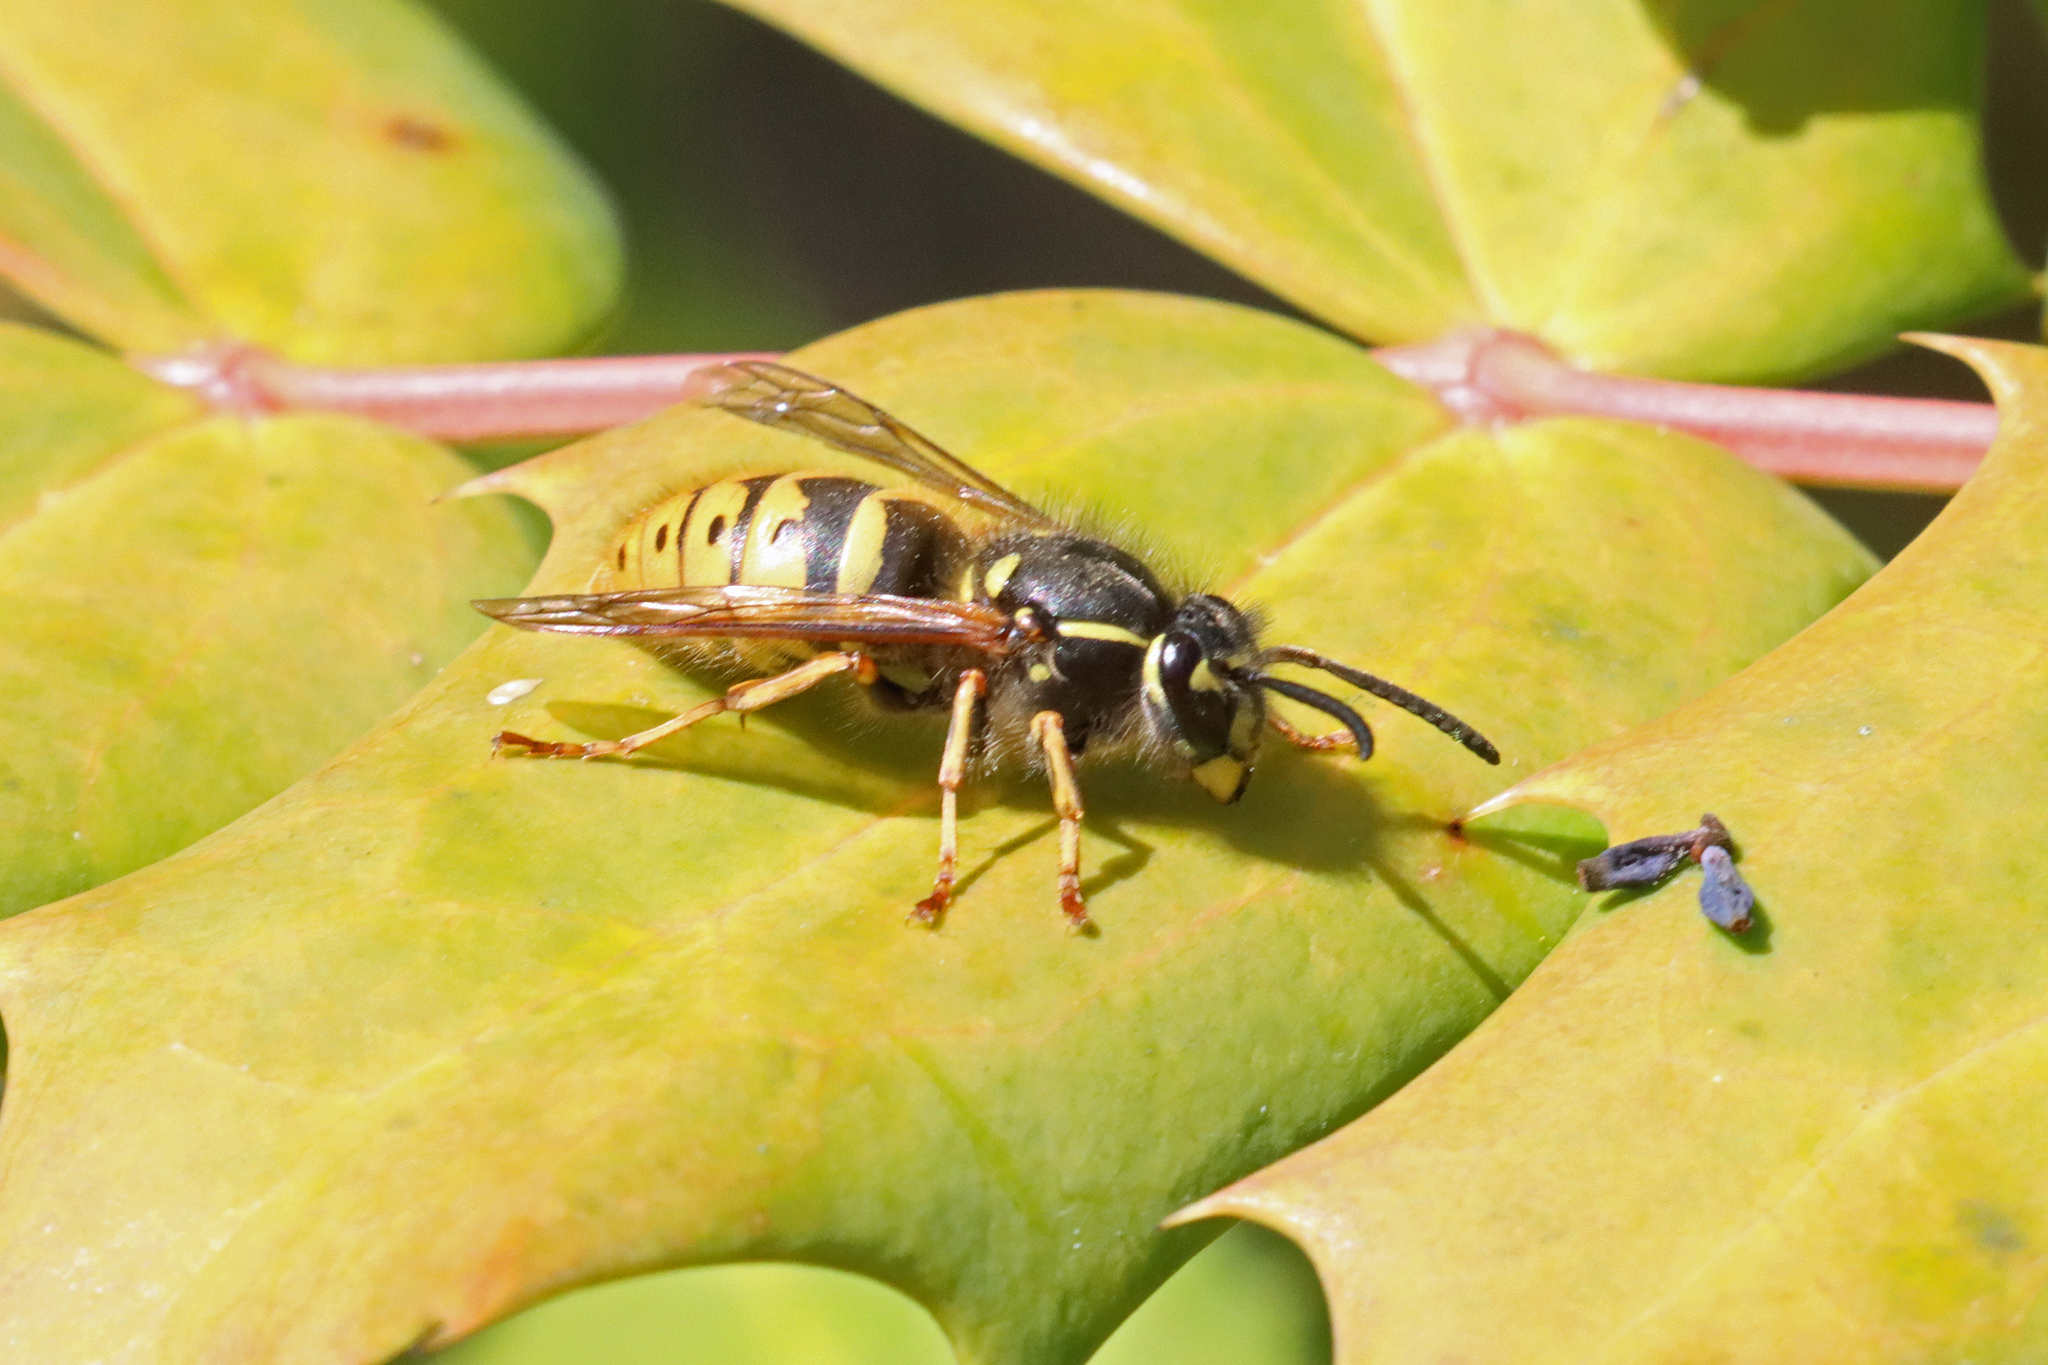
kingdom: Animalia
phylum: Arthropoda
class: Insecta
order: Hymenoptera
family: Vespidae
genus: Vespula
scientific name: Vespula vulgaris
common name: Common wasp
